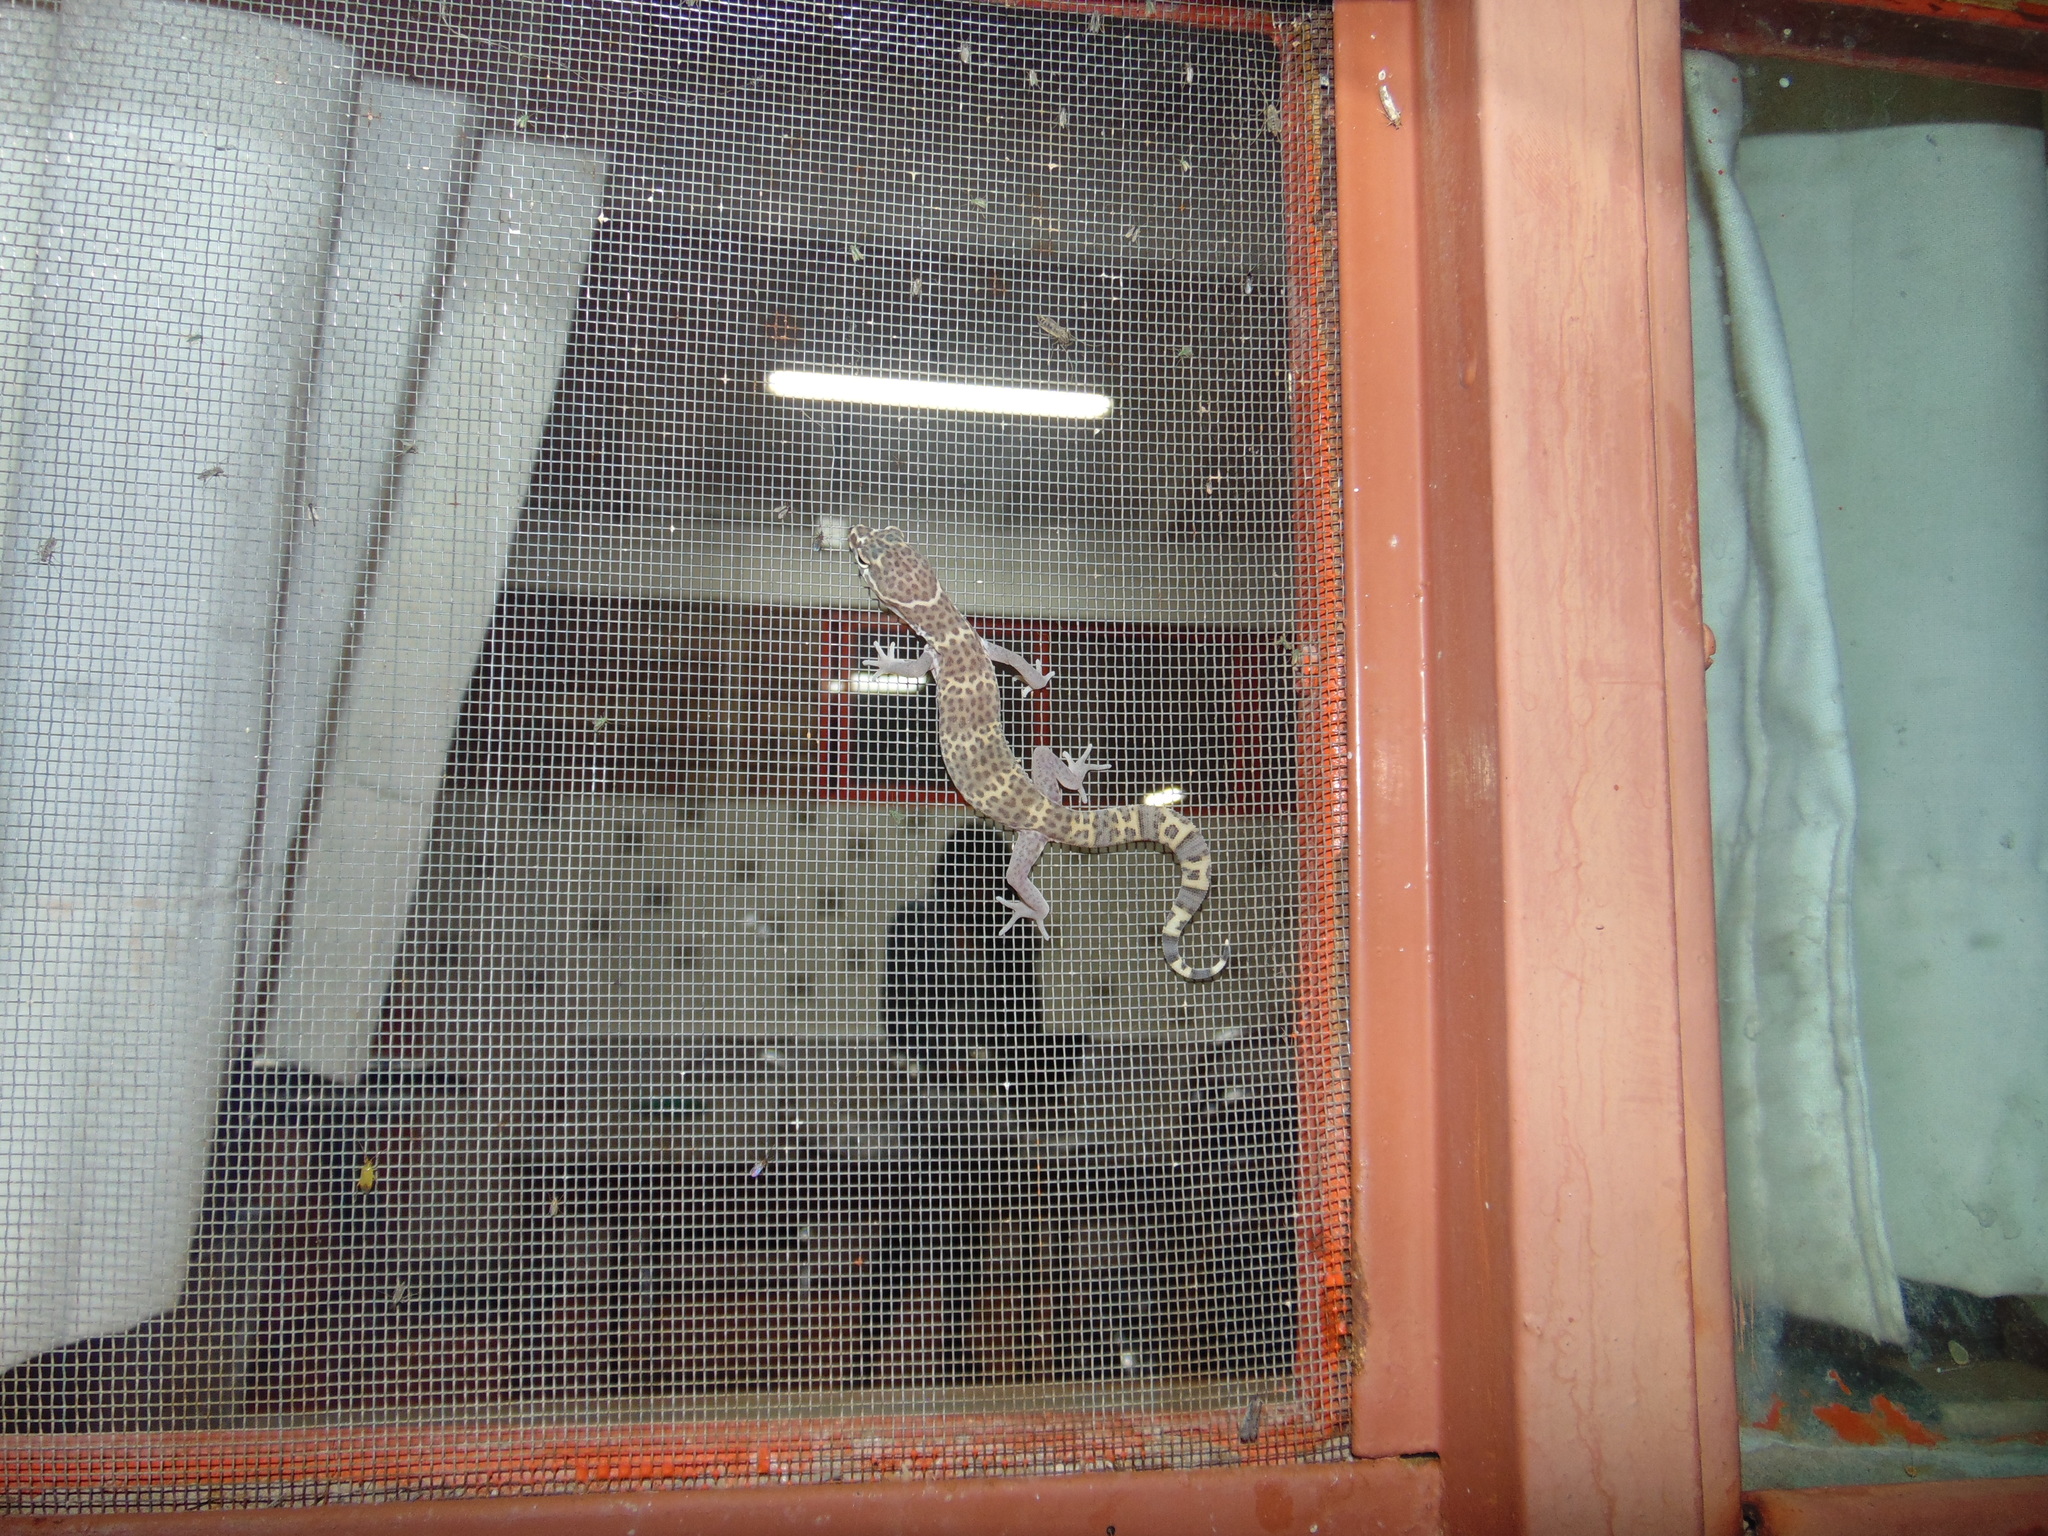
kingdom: Animalia
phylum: Chordata
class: Squamata
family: Eublepharidae
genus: Coleonyx
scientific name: Coleonyx brevis
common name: Texas banded gecko
